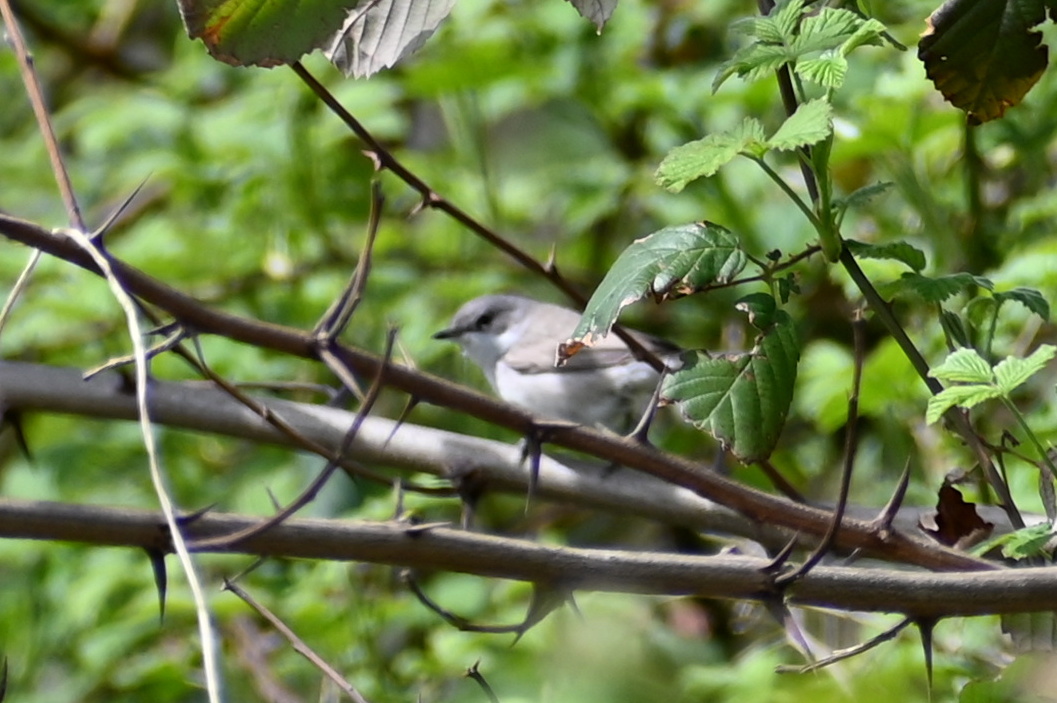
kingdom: Animalia
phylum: Chordata
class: Aves
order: Passeriformes
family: Sylviidae
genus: Sylvia
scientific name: Sylvia curruca
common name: Lesser whitethroat
